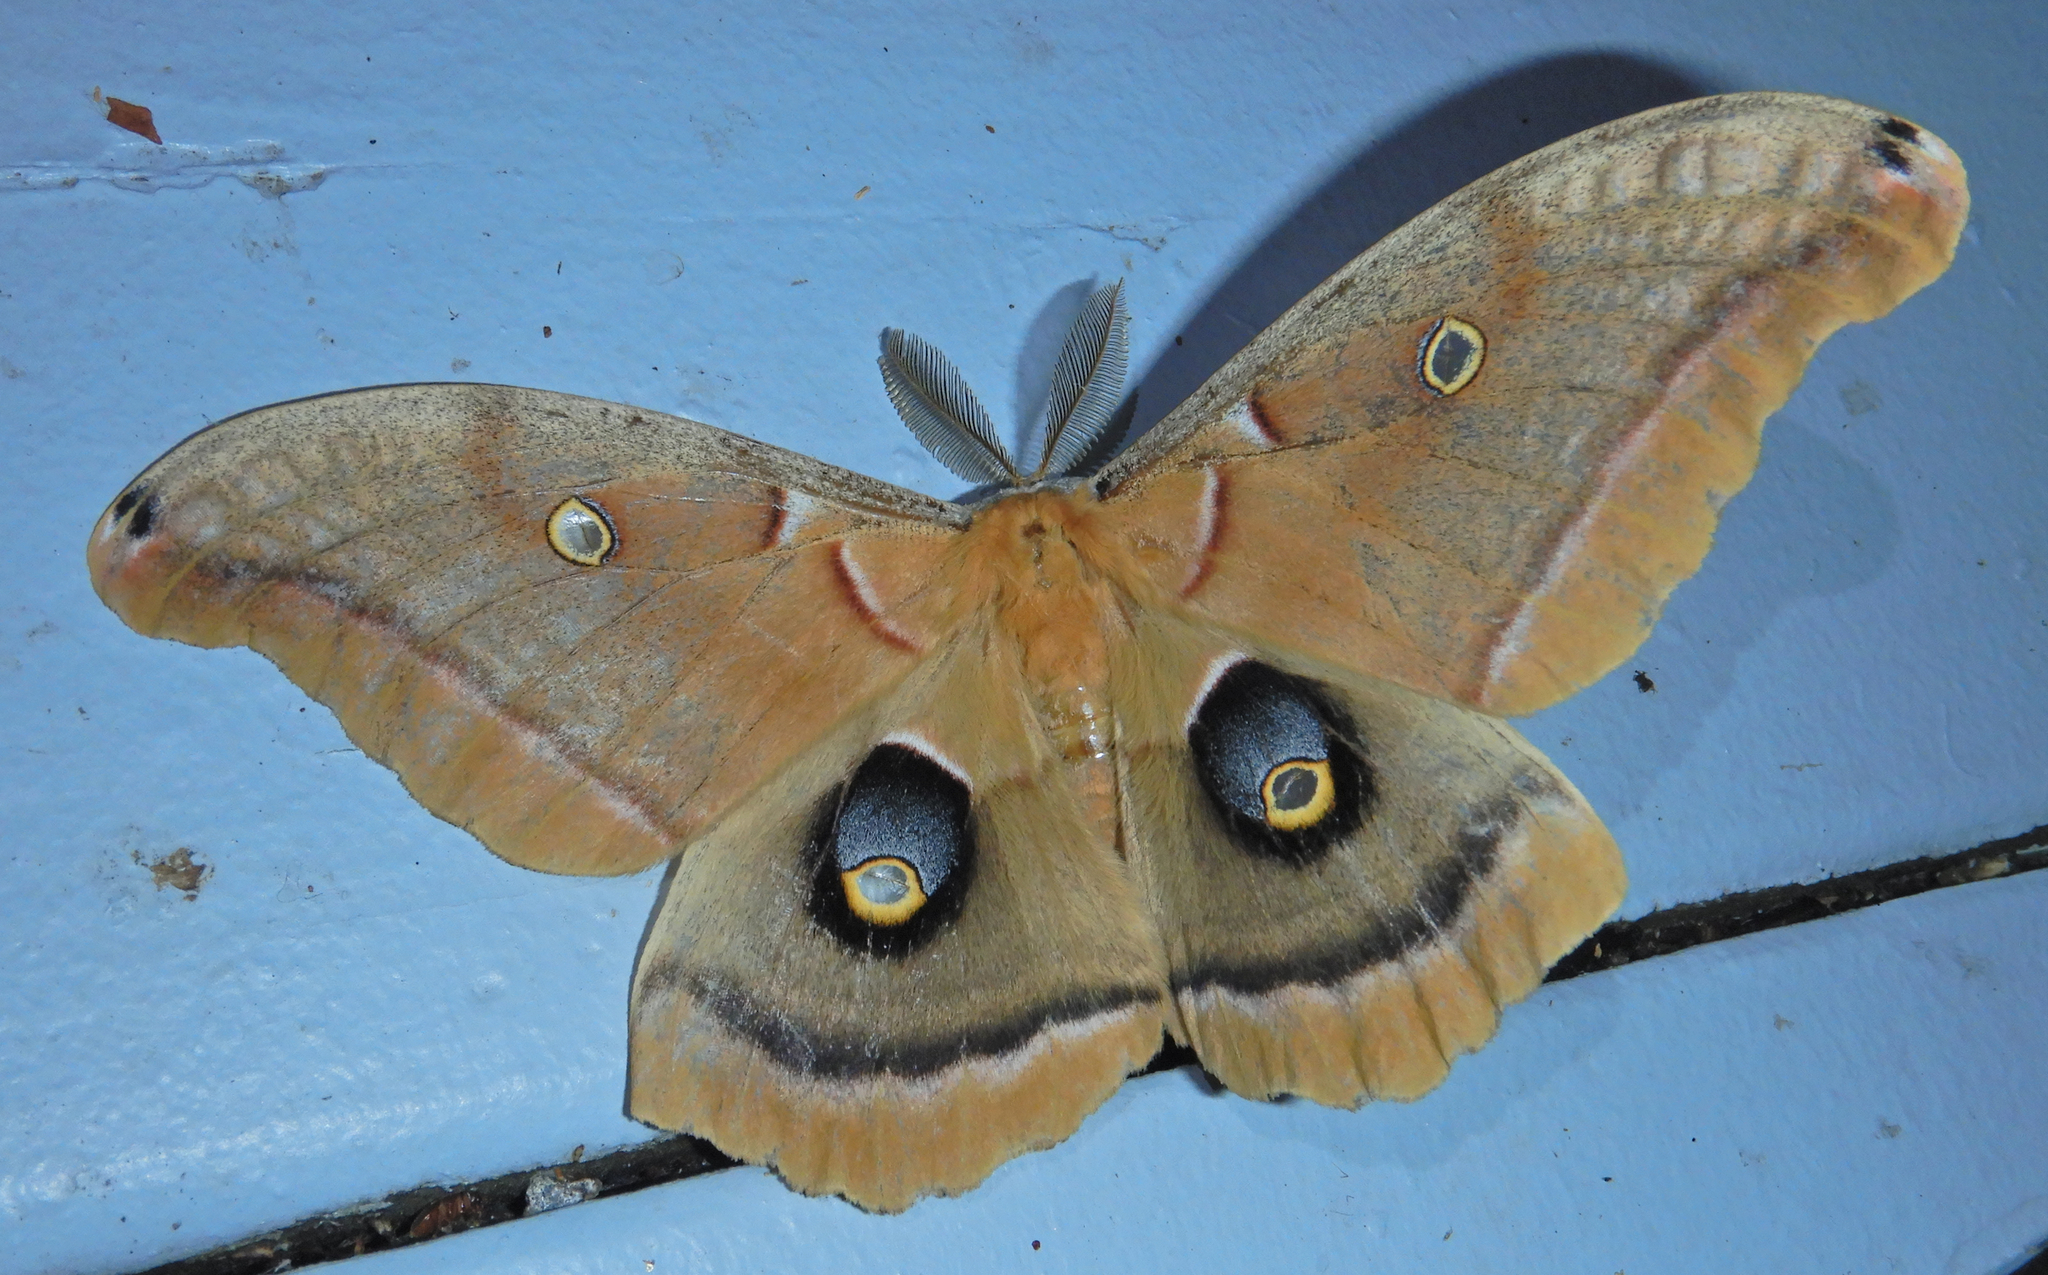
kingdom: Animalia
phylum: Arthropoda
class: Insecta
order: Lepidoptera
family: Saturniidae
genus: Antheraea
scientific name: Antheraea polyphemus
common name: Polyphemus moth
